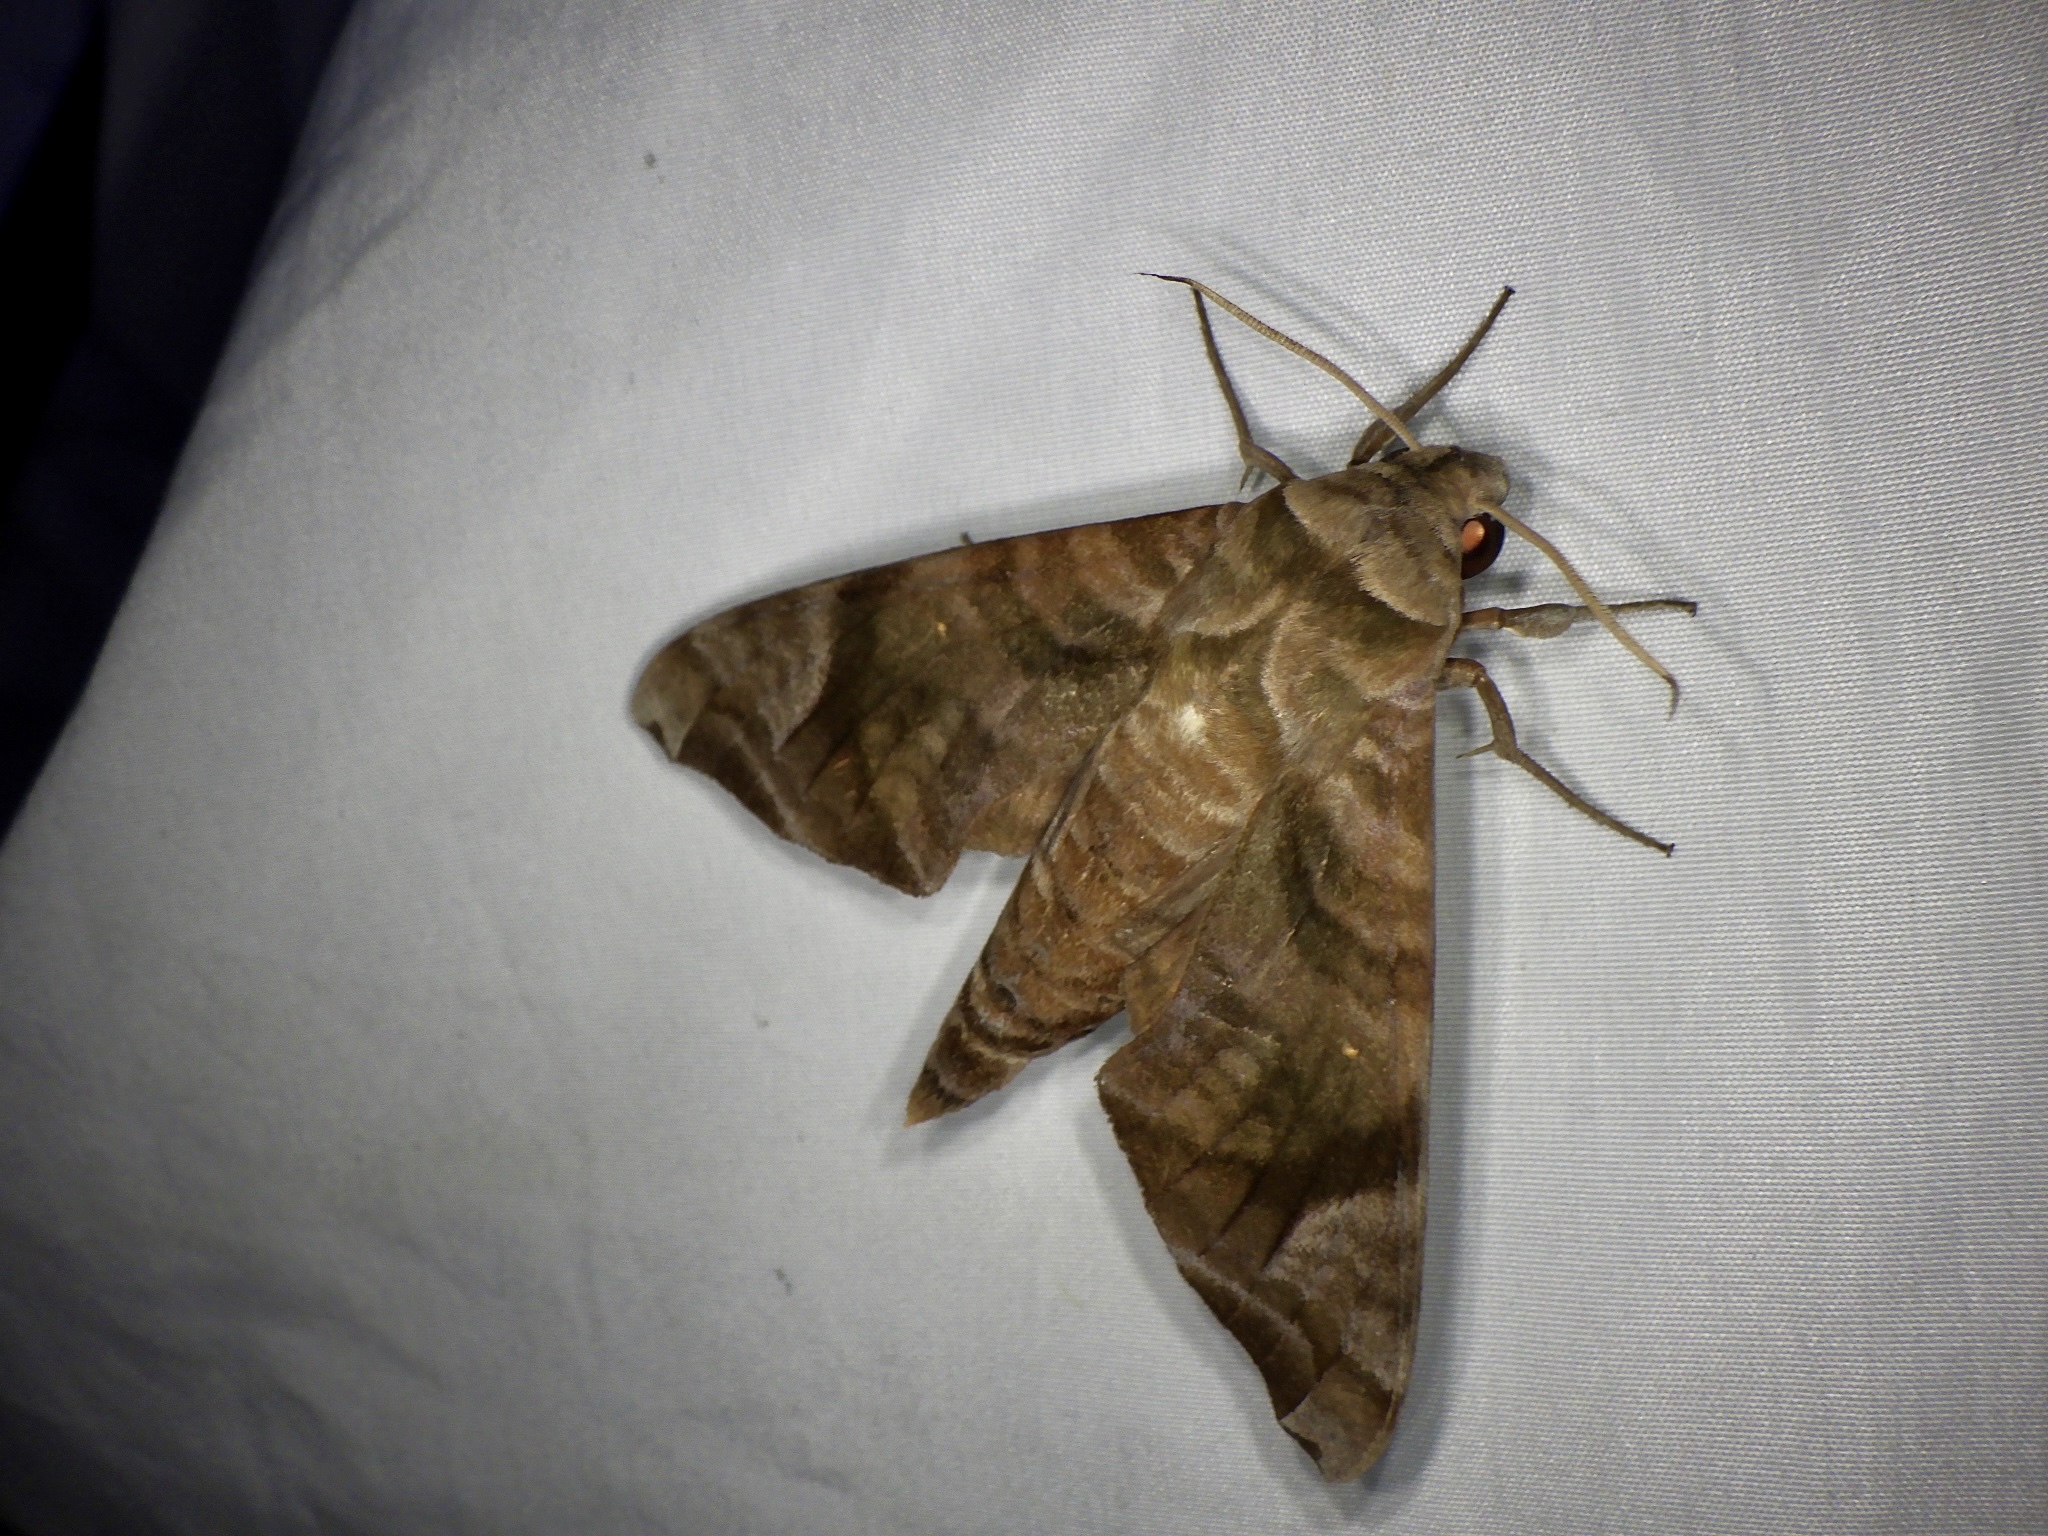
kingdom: Animalia
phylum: Arthropoda
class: Insecta
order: Lepidoptera
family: Sphingidae
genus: Acosmeryx
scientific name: Acosmeryx castanea
